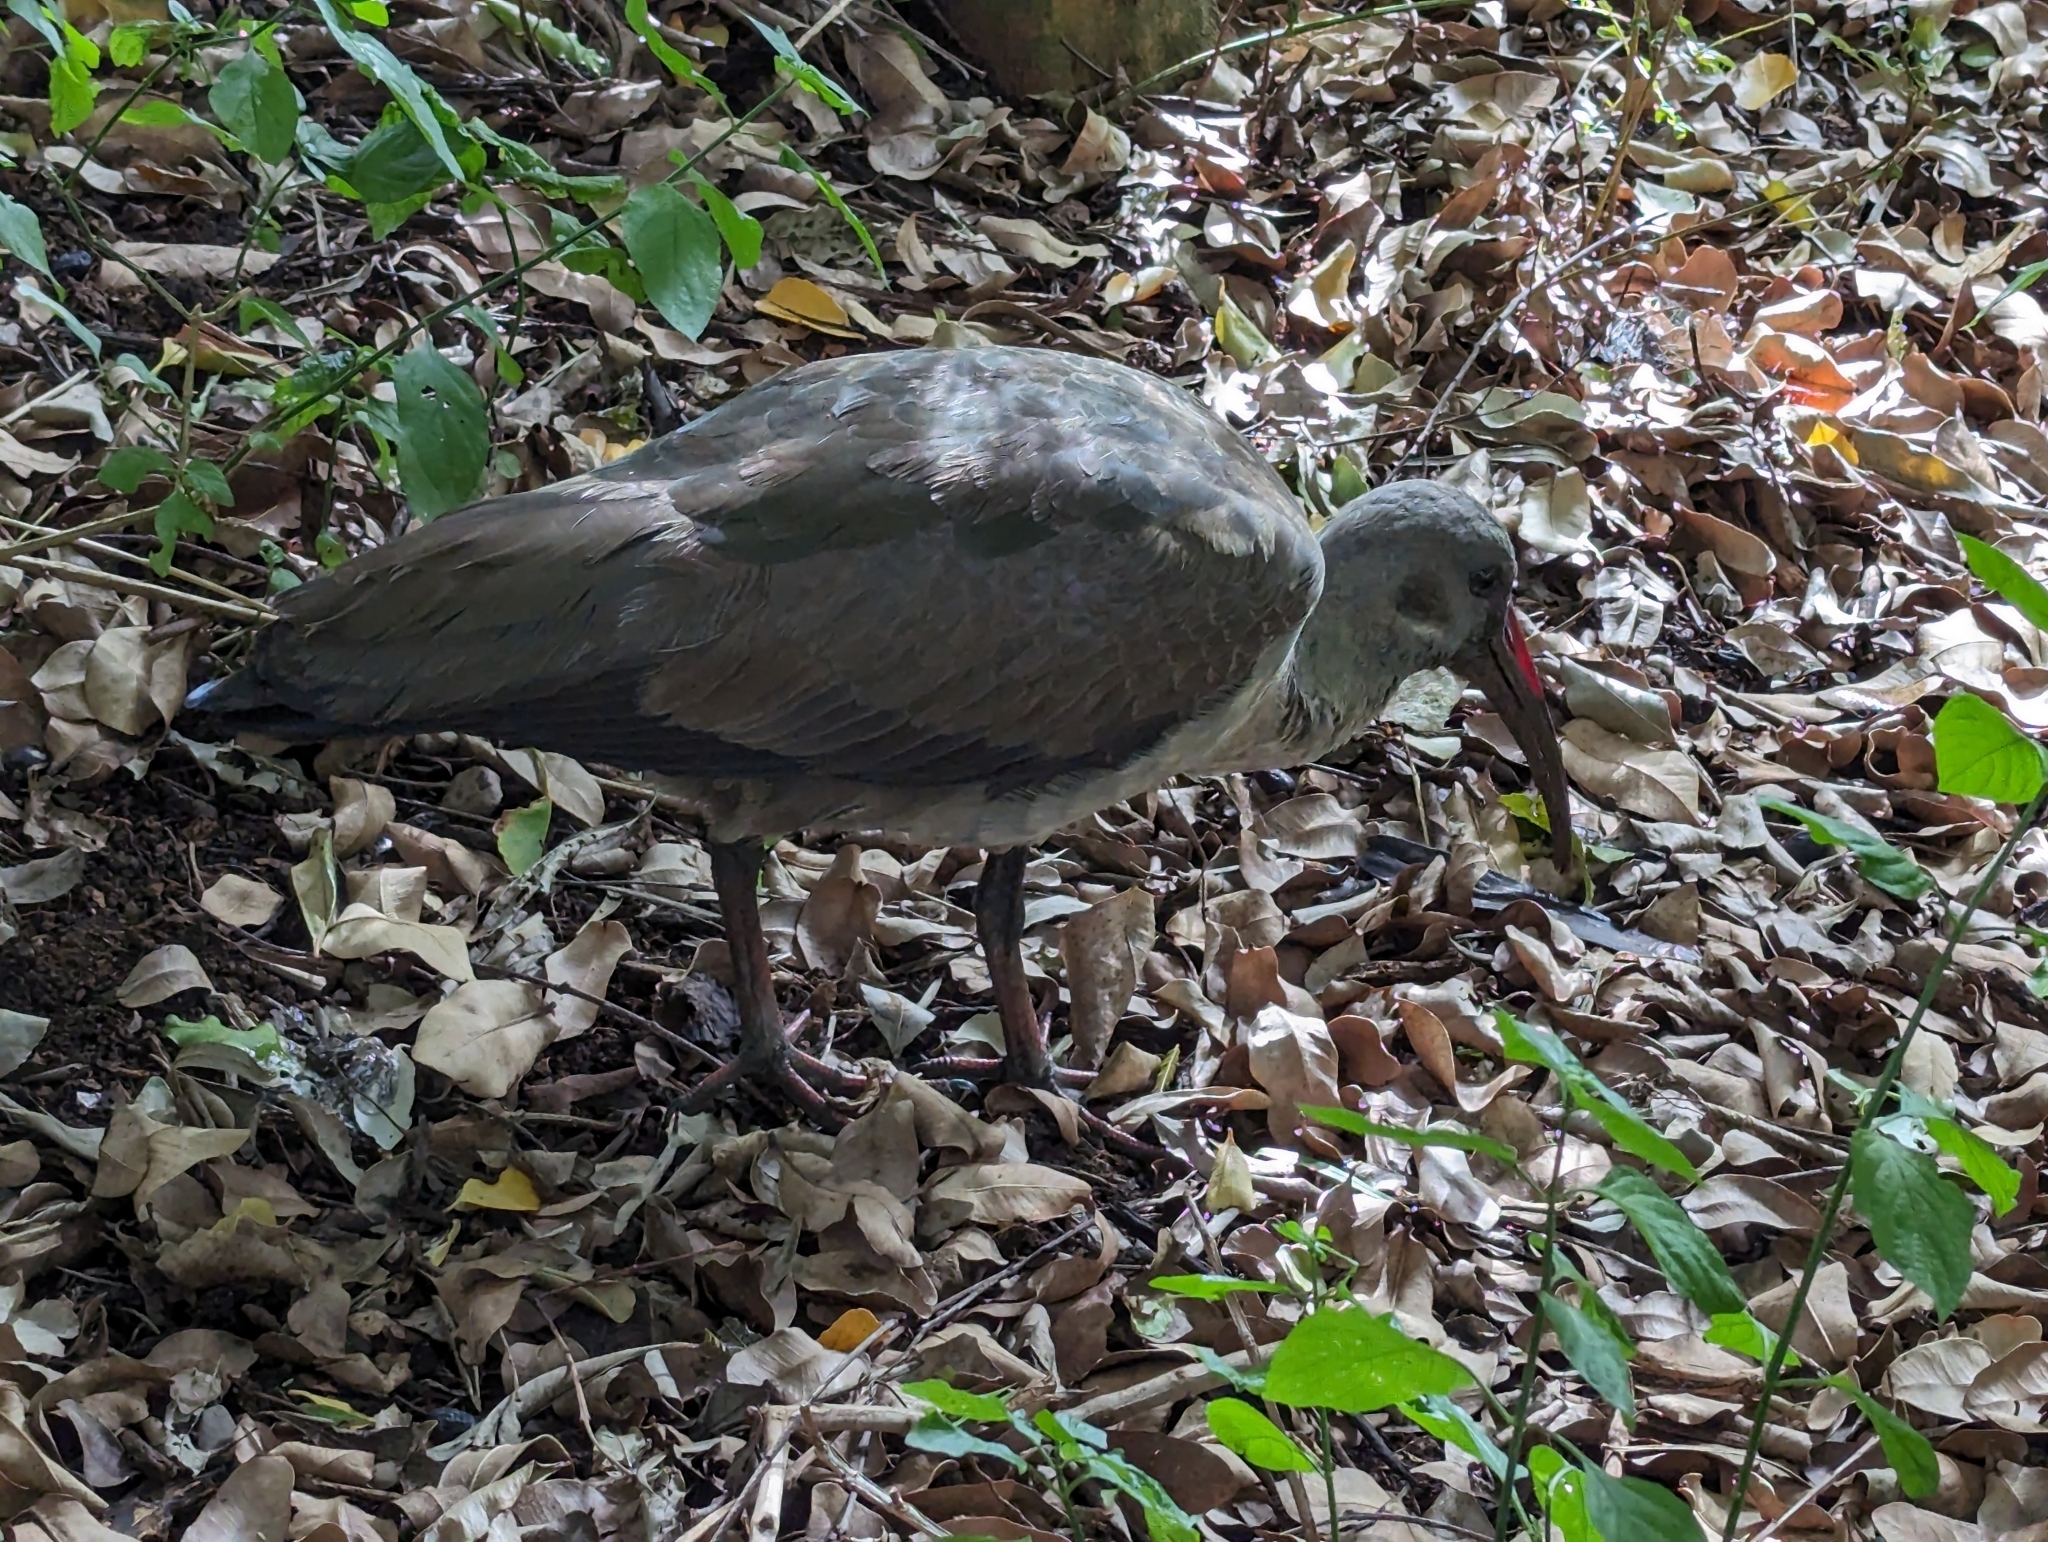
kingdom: Animalia
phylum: Chordata
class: Aves
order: Pelecaniformes
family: Threskiornithidae
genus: Bostrychia
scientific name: Bostrychia hagedash
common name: Hadada ibis
